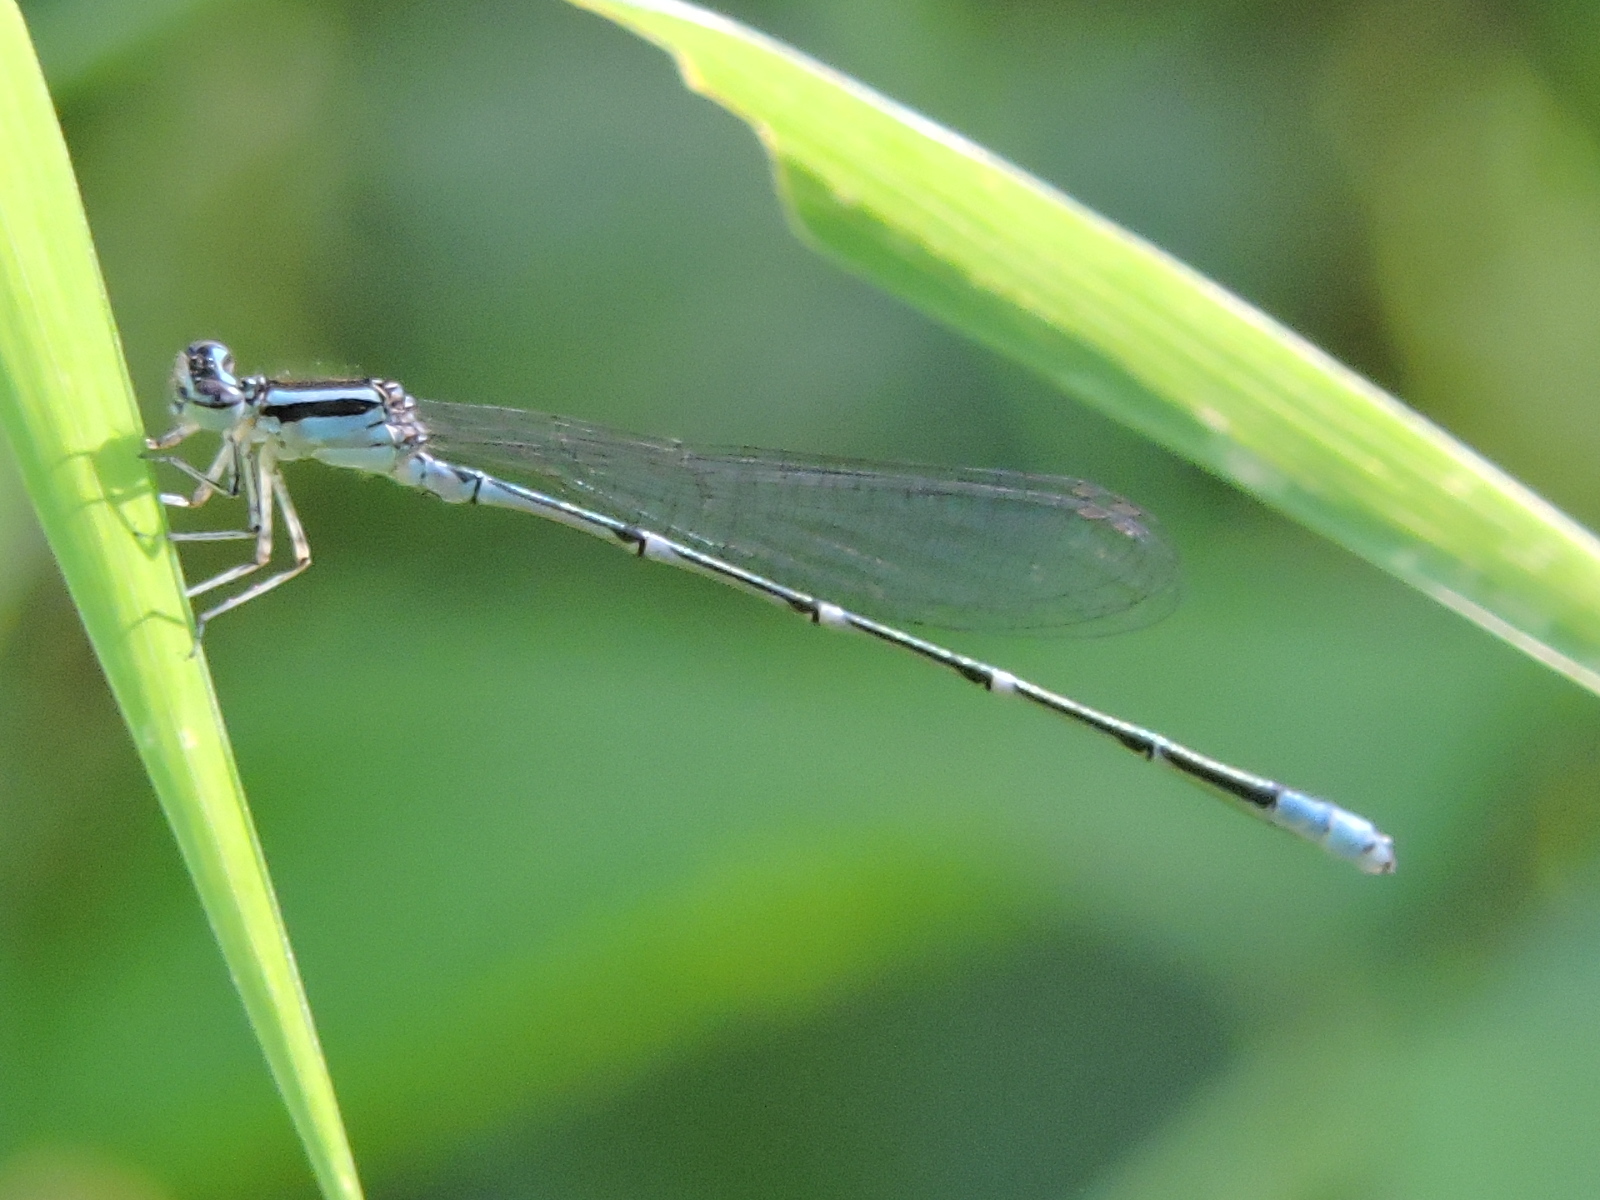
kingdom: Animalia
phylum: Arthropoda
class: Insecta
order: Odonata
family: Coenagrionidae
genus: Enallagma
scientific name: Enallagma exsulans
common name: Stream bluet
